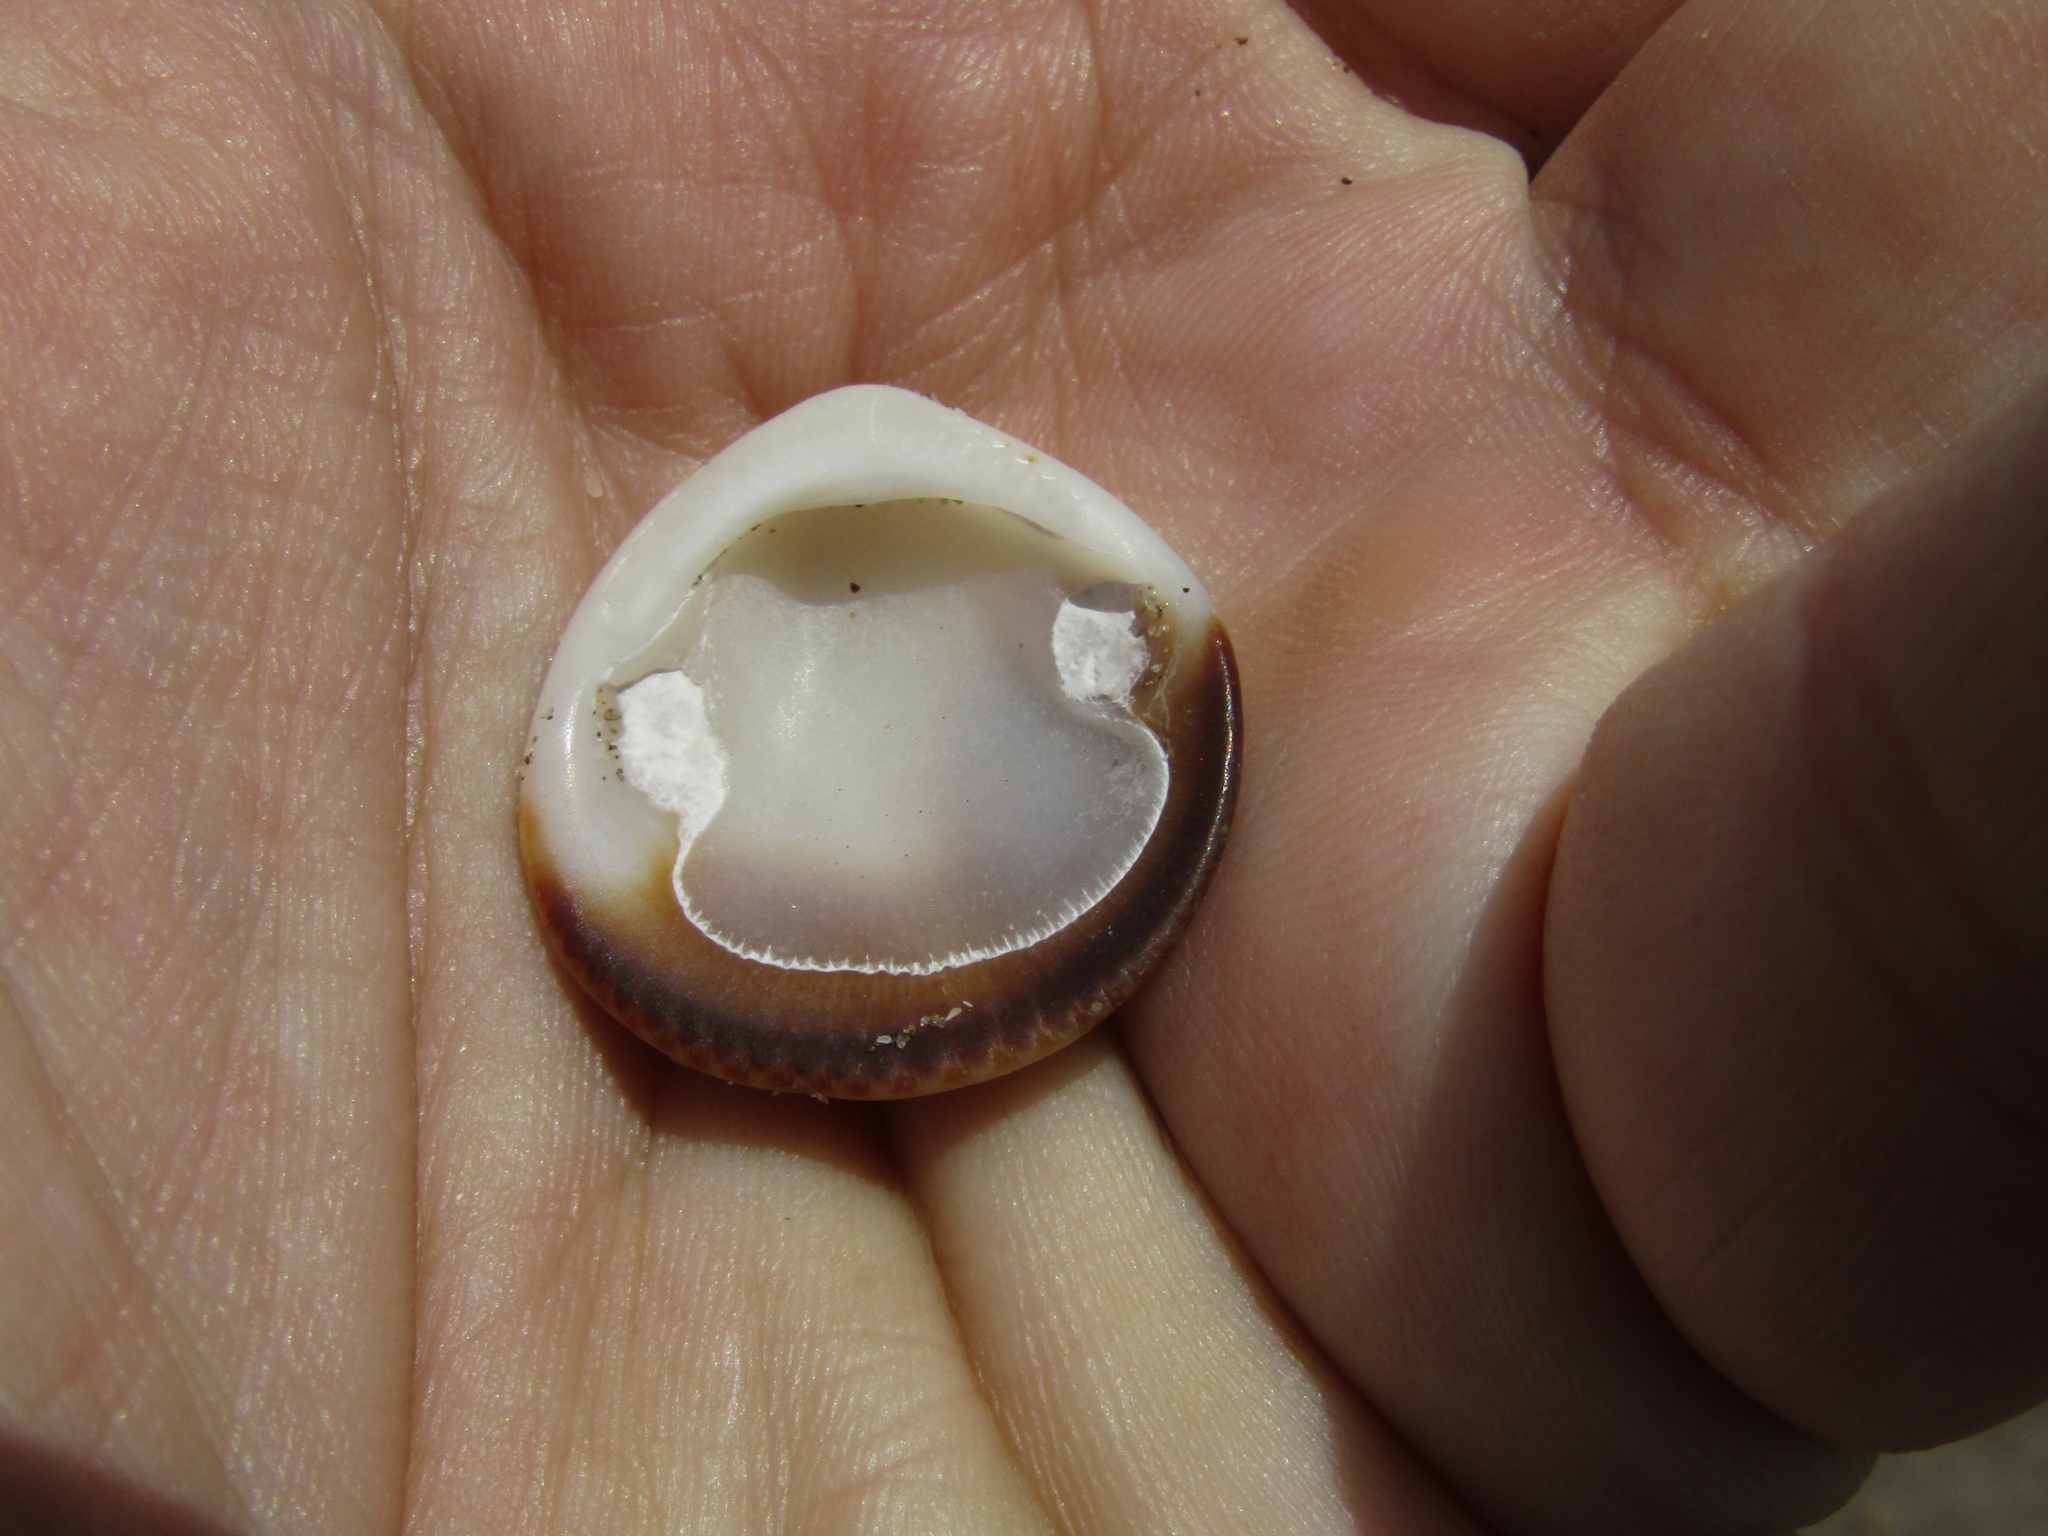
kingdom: Animalia
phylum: Mollusca
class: Bivalvia
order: Arcida
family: Glycymerididae
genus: Glycymeris
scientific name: Glycymeris longior
